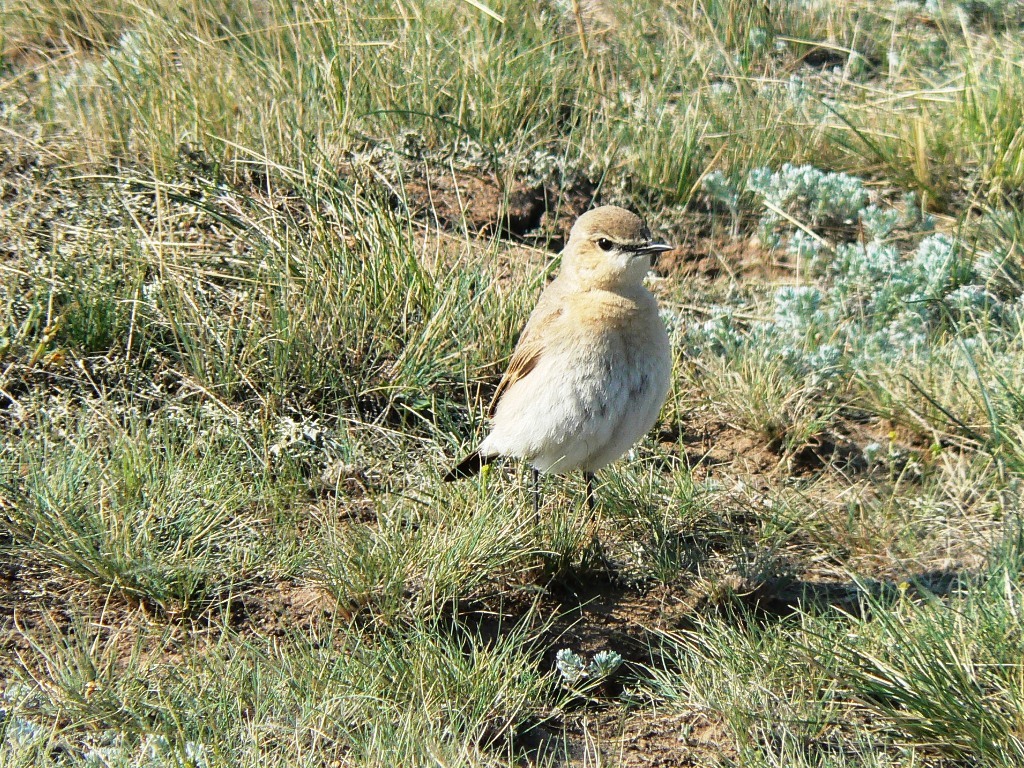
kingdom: Animalia
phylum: Chordata
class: Aves
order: Passeriformes
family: Muscicapidae
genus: Oenanthe
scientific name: Oenanthe isabellina
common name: Isabelline wheatear
